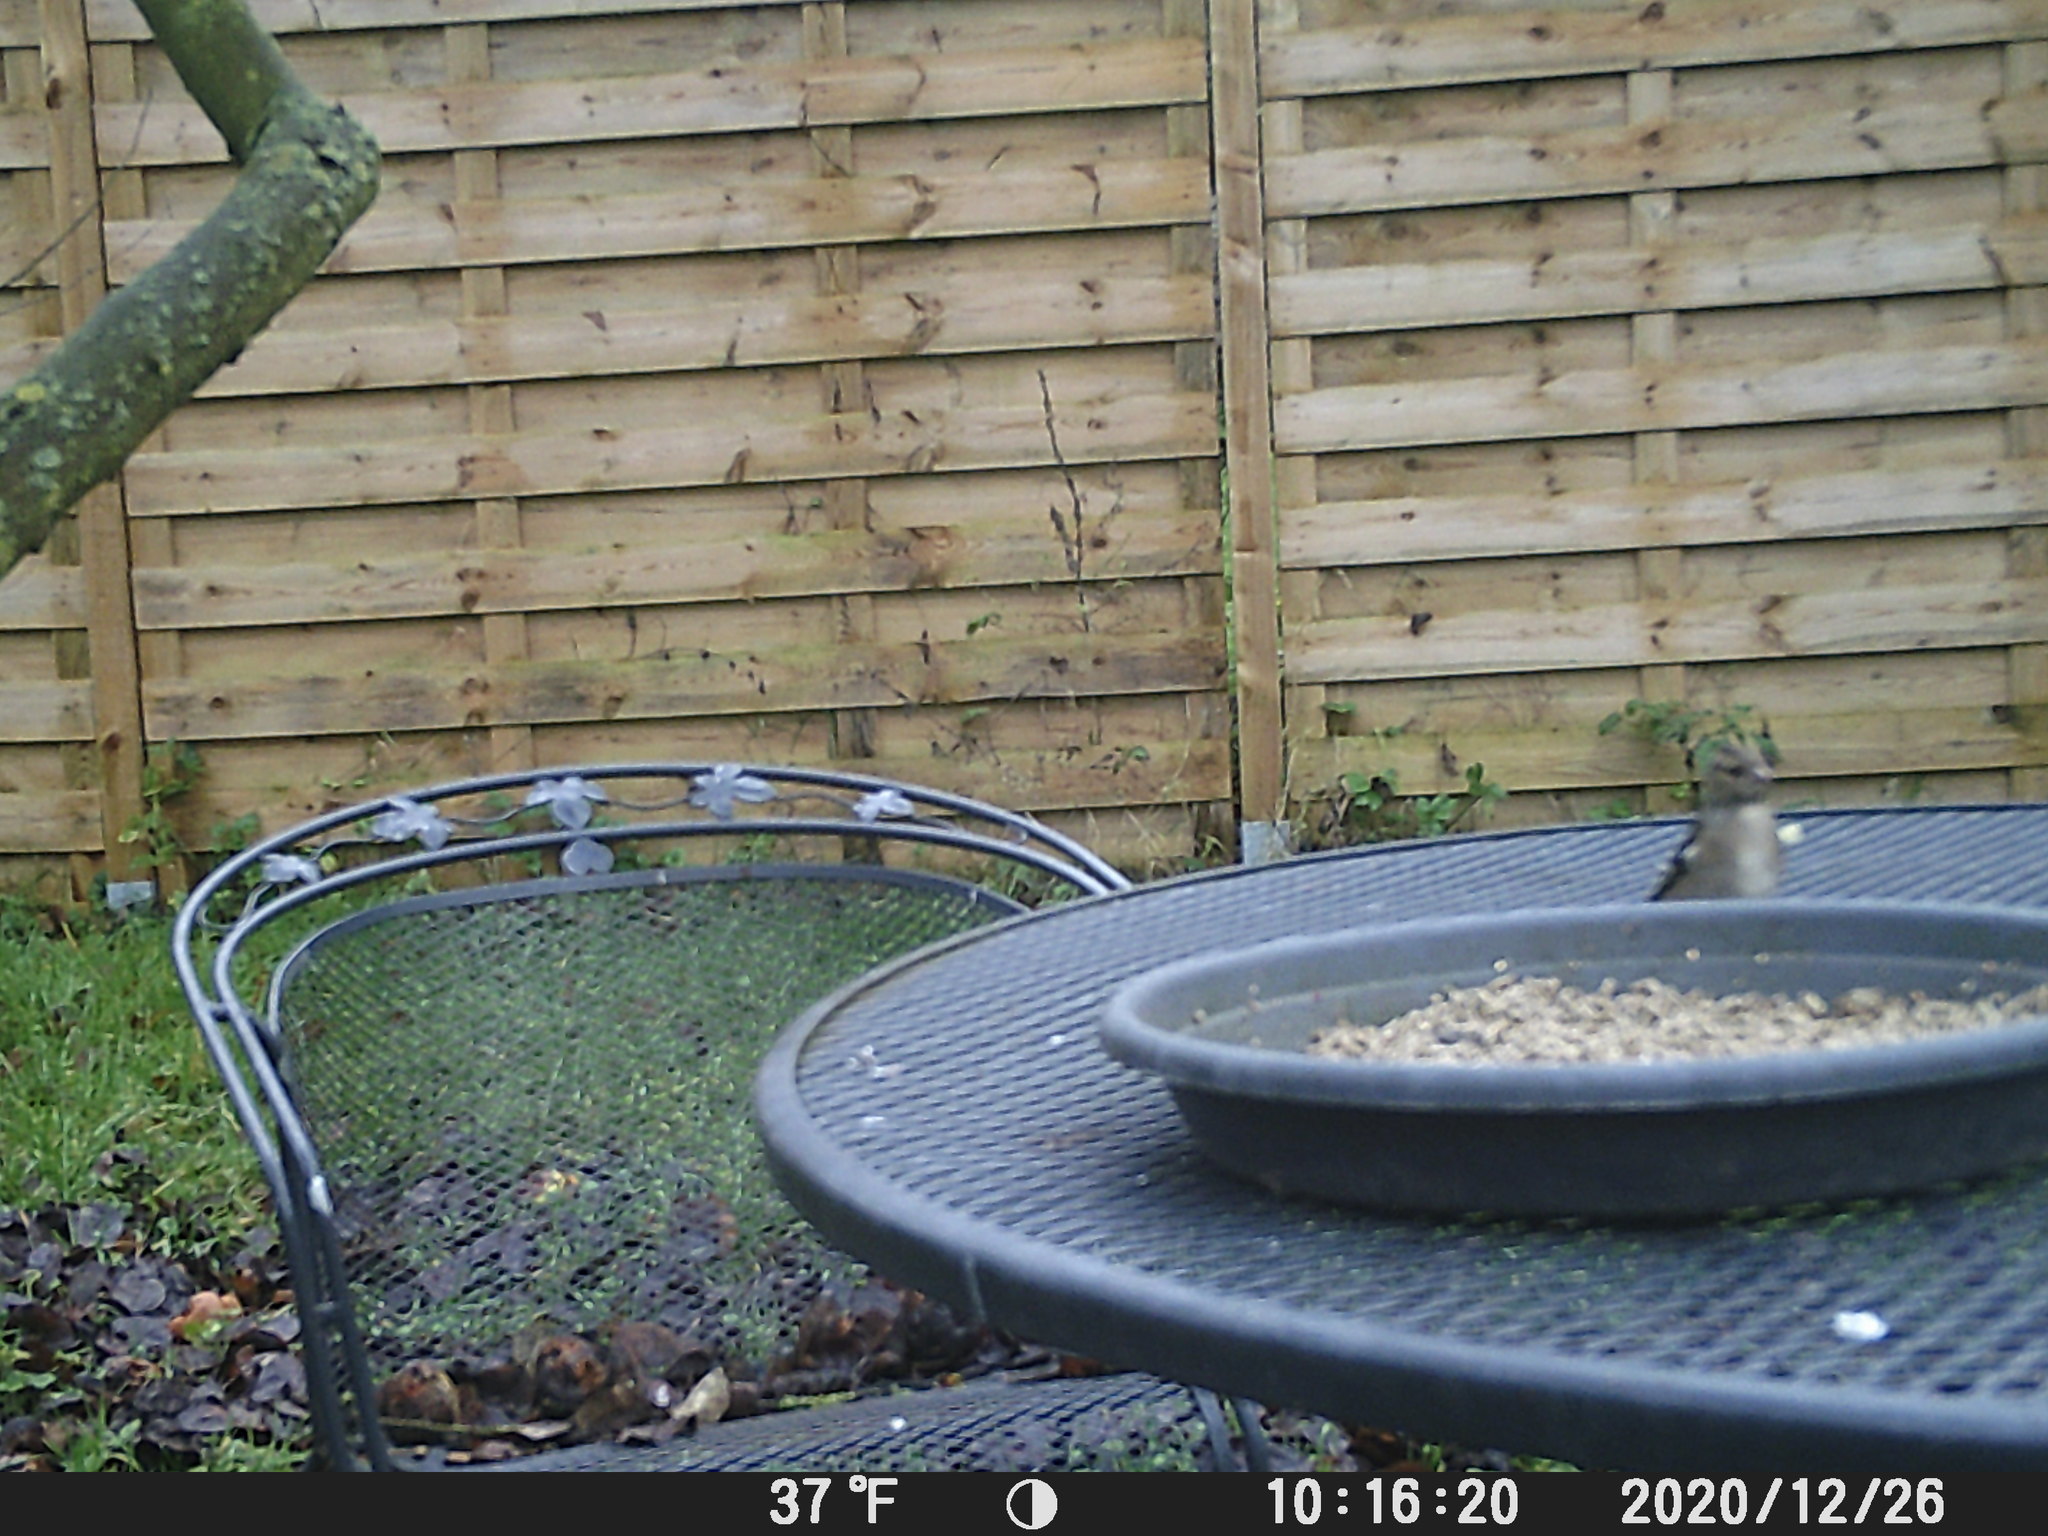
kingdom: Animalia
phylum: Chordata
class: Aves
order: Passeriformes
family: Fringillidae
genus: Fringilla
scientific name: Fringilla coelebs
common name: Common chaffinch
